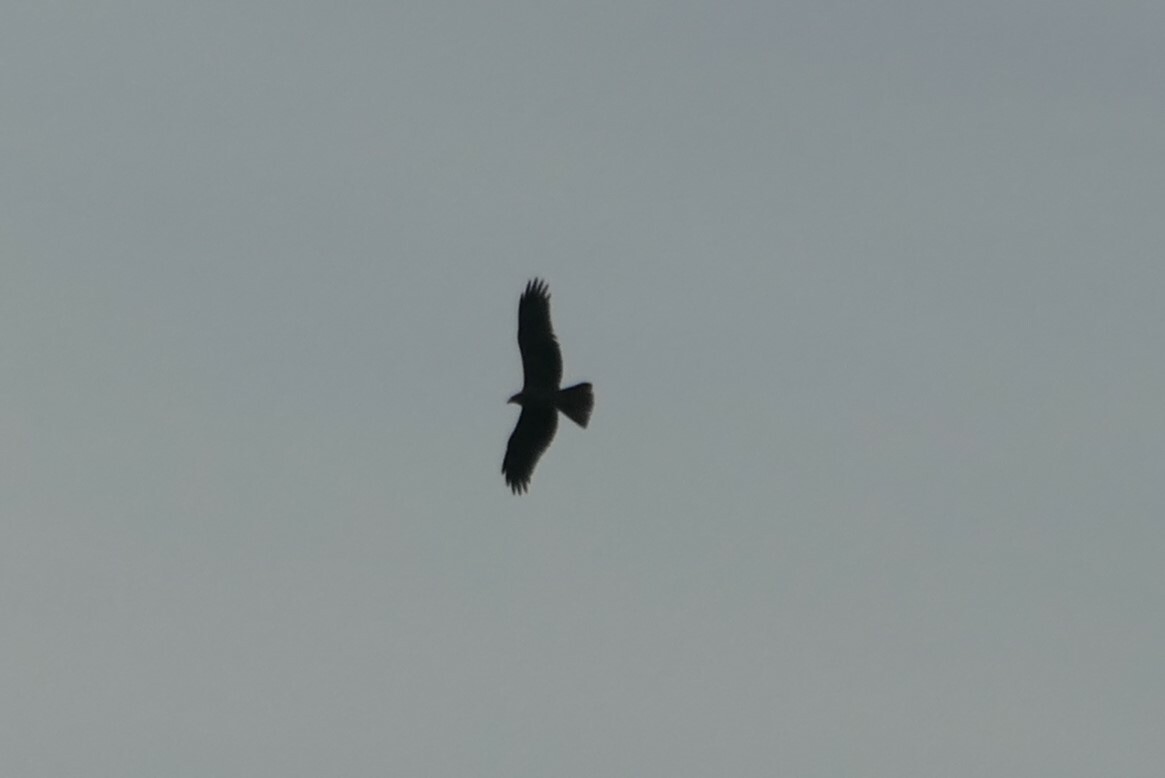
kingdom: Animalia
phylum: Chordata
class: Aves
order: Accipitriformes
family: Accipitridae
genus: Milvus
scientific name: Milvus migrans
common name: Black kite
